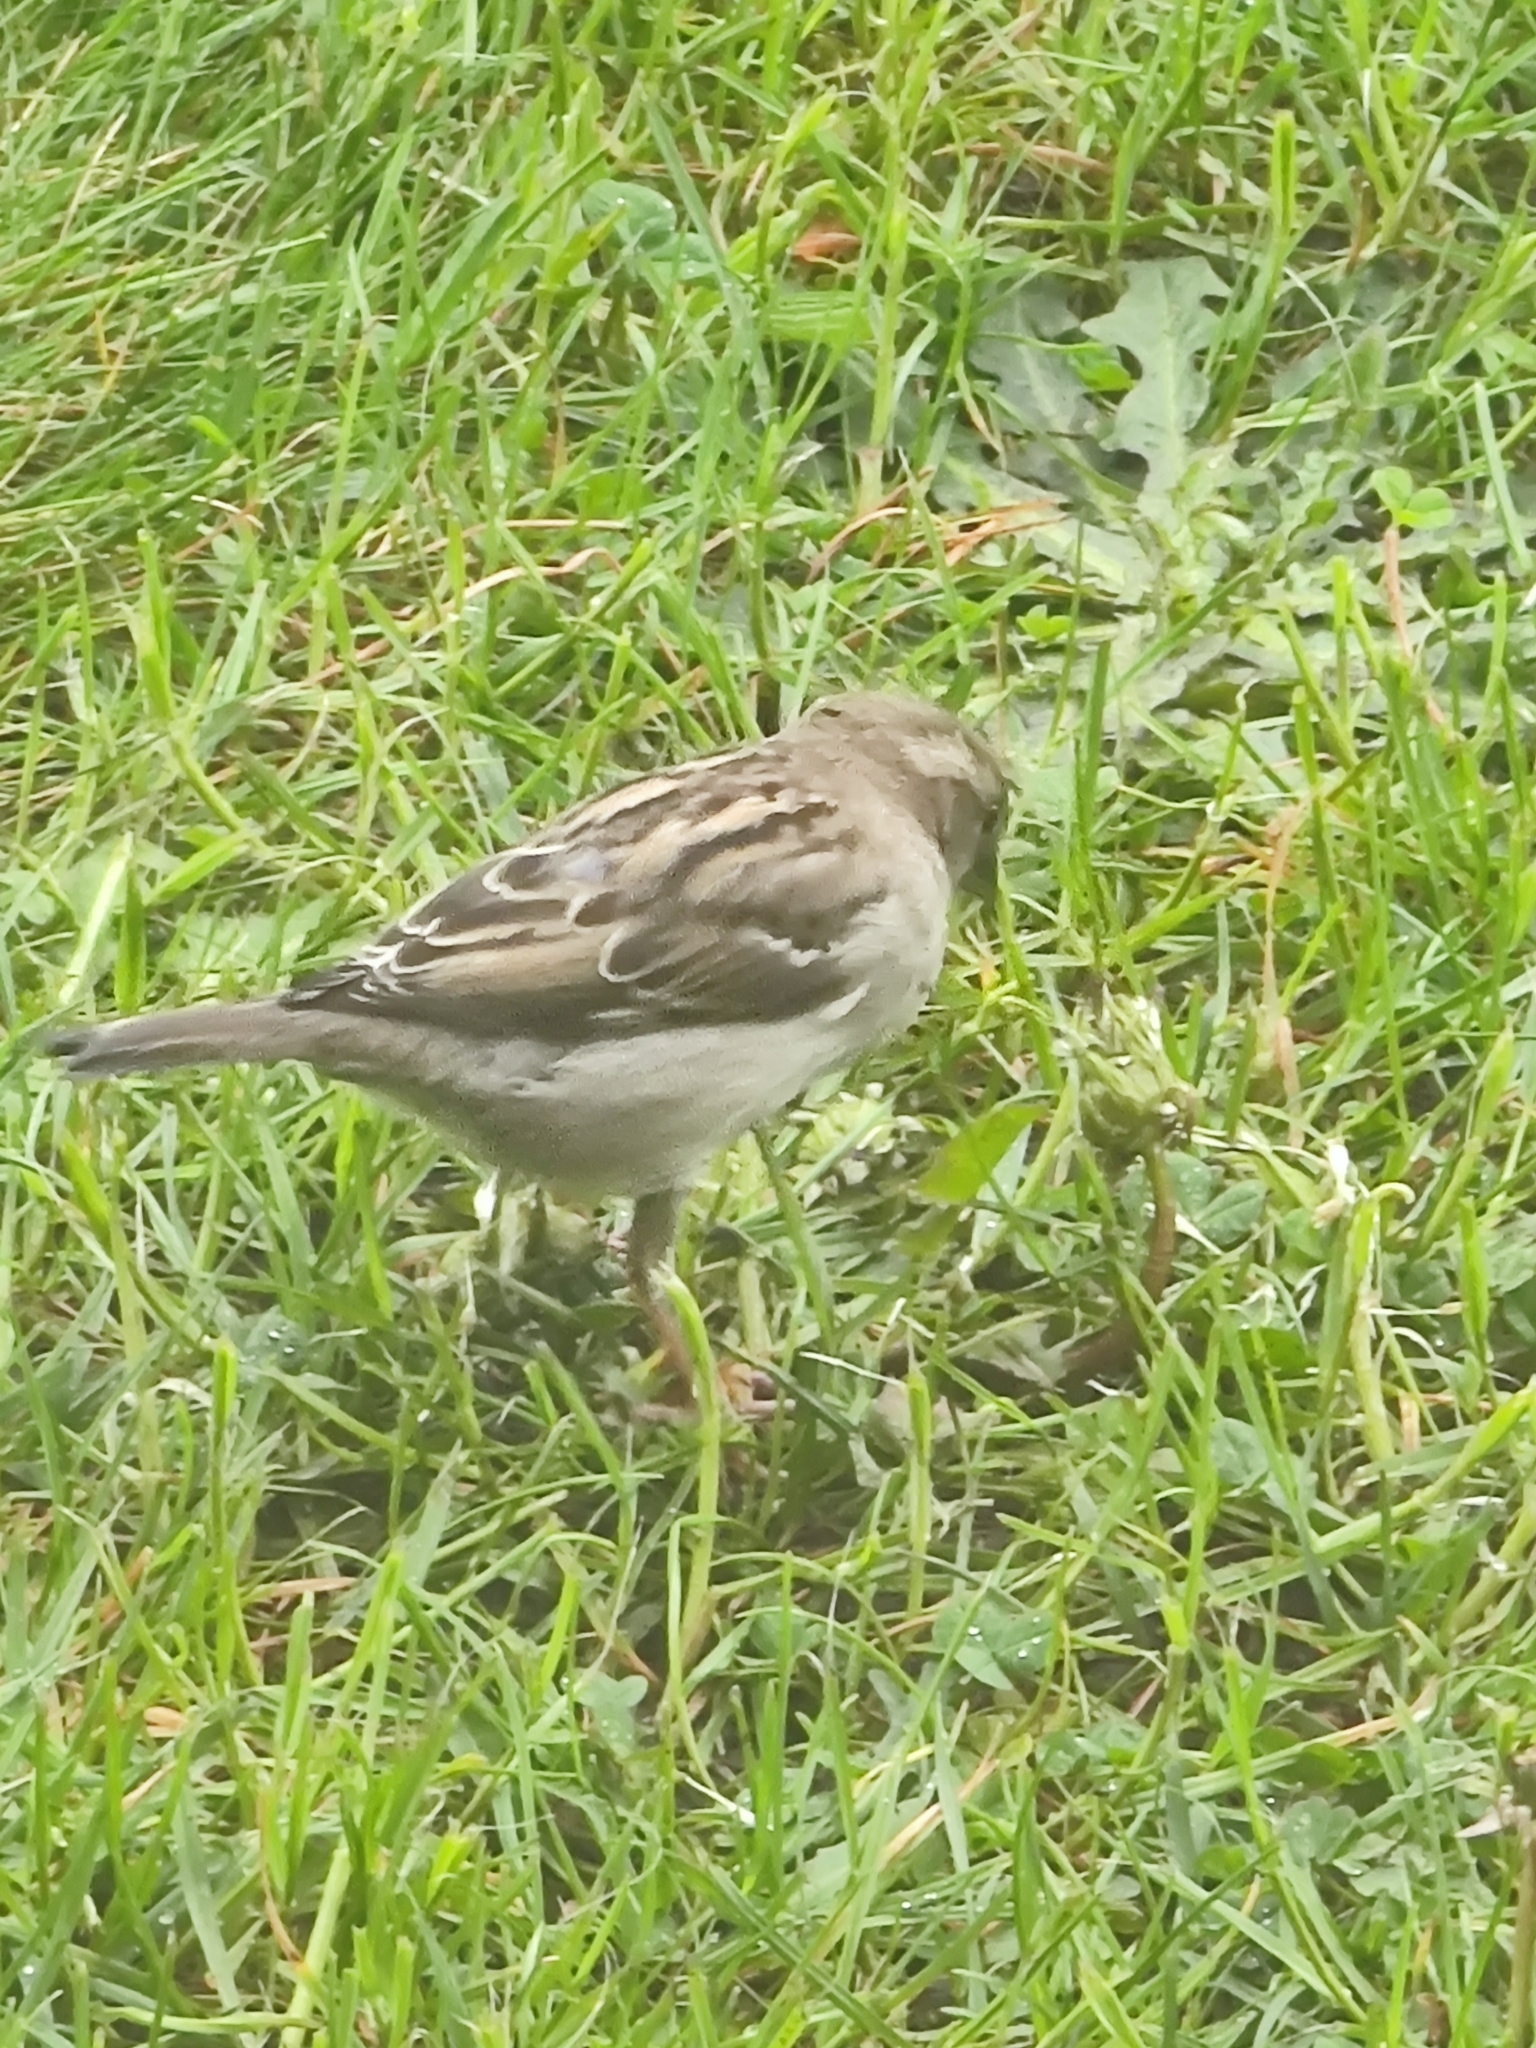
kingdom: Animalia
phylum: Chordata
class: Aves
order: Passeriformes
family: Passeridae
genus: Passer
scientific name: Passer domesticus
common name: House sparrow
